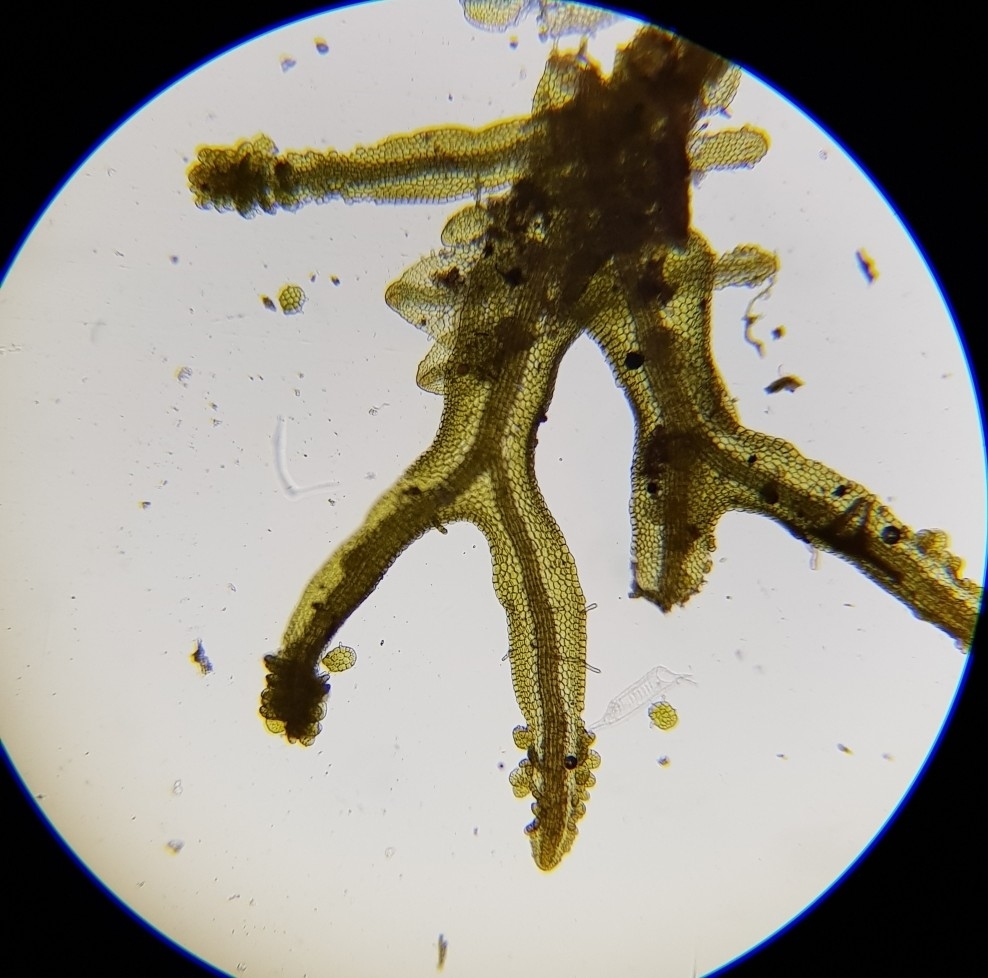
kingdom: Plantae
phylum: Marchantiophyta
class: Jungermanniopsida
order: Metzgeriales
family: Metzgeriaceae
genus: Metzgeria
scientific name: Metzgeria violacea
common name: Blueish veilwort
